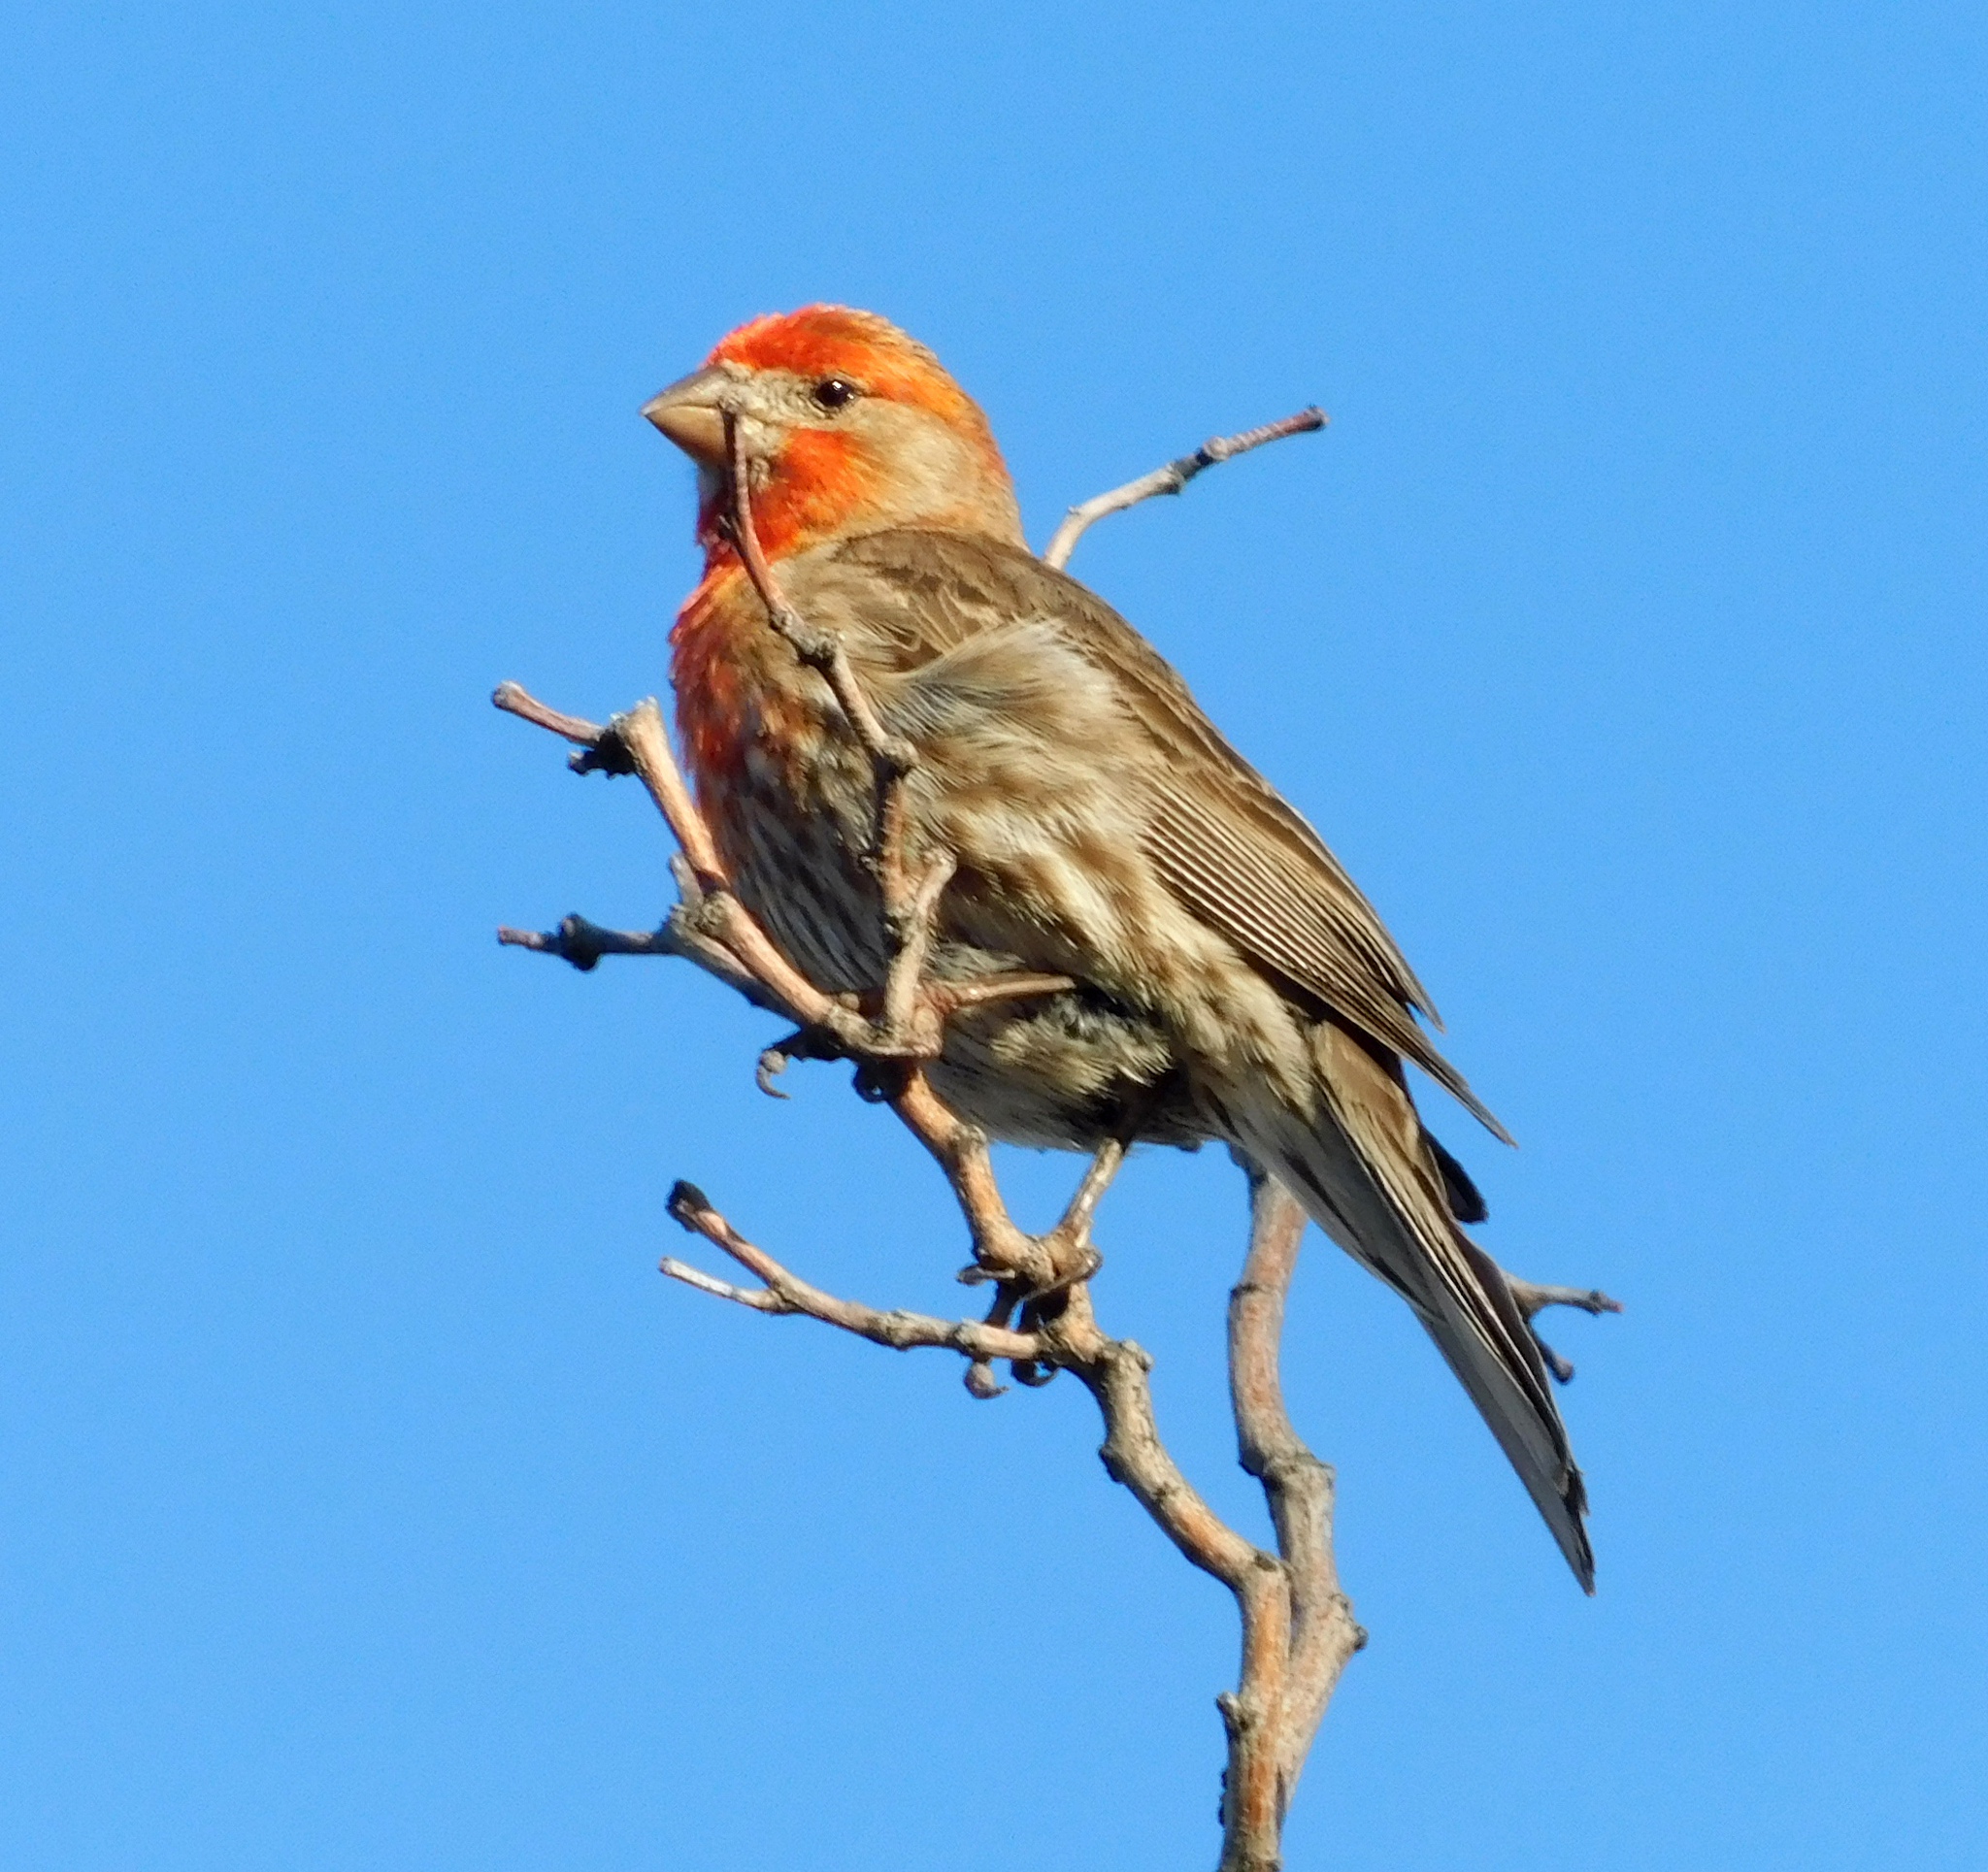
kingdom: Animalia
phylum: Chordata
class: Aves
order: Passeriformes
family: Fringillidae
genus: Haemorhous
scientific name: Haemorhous mexicanus
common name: House finch
